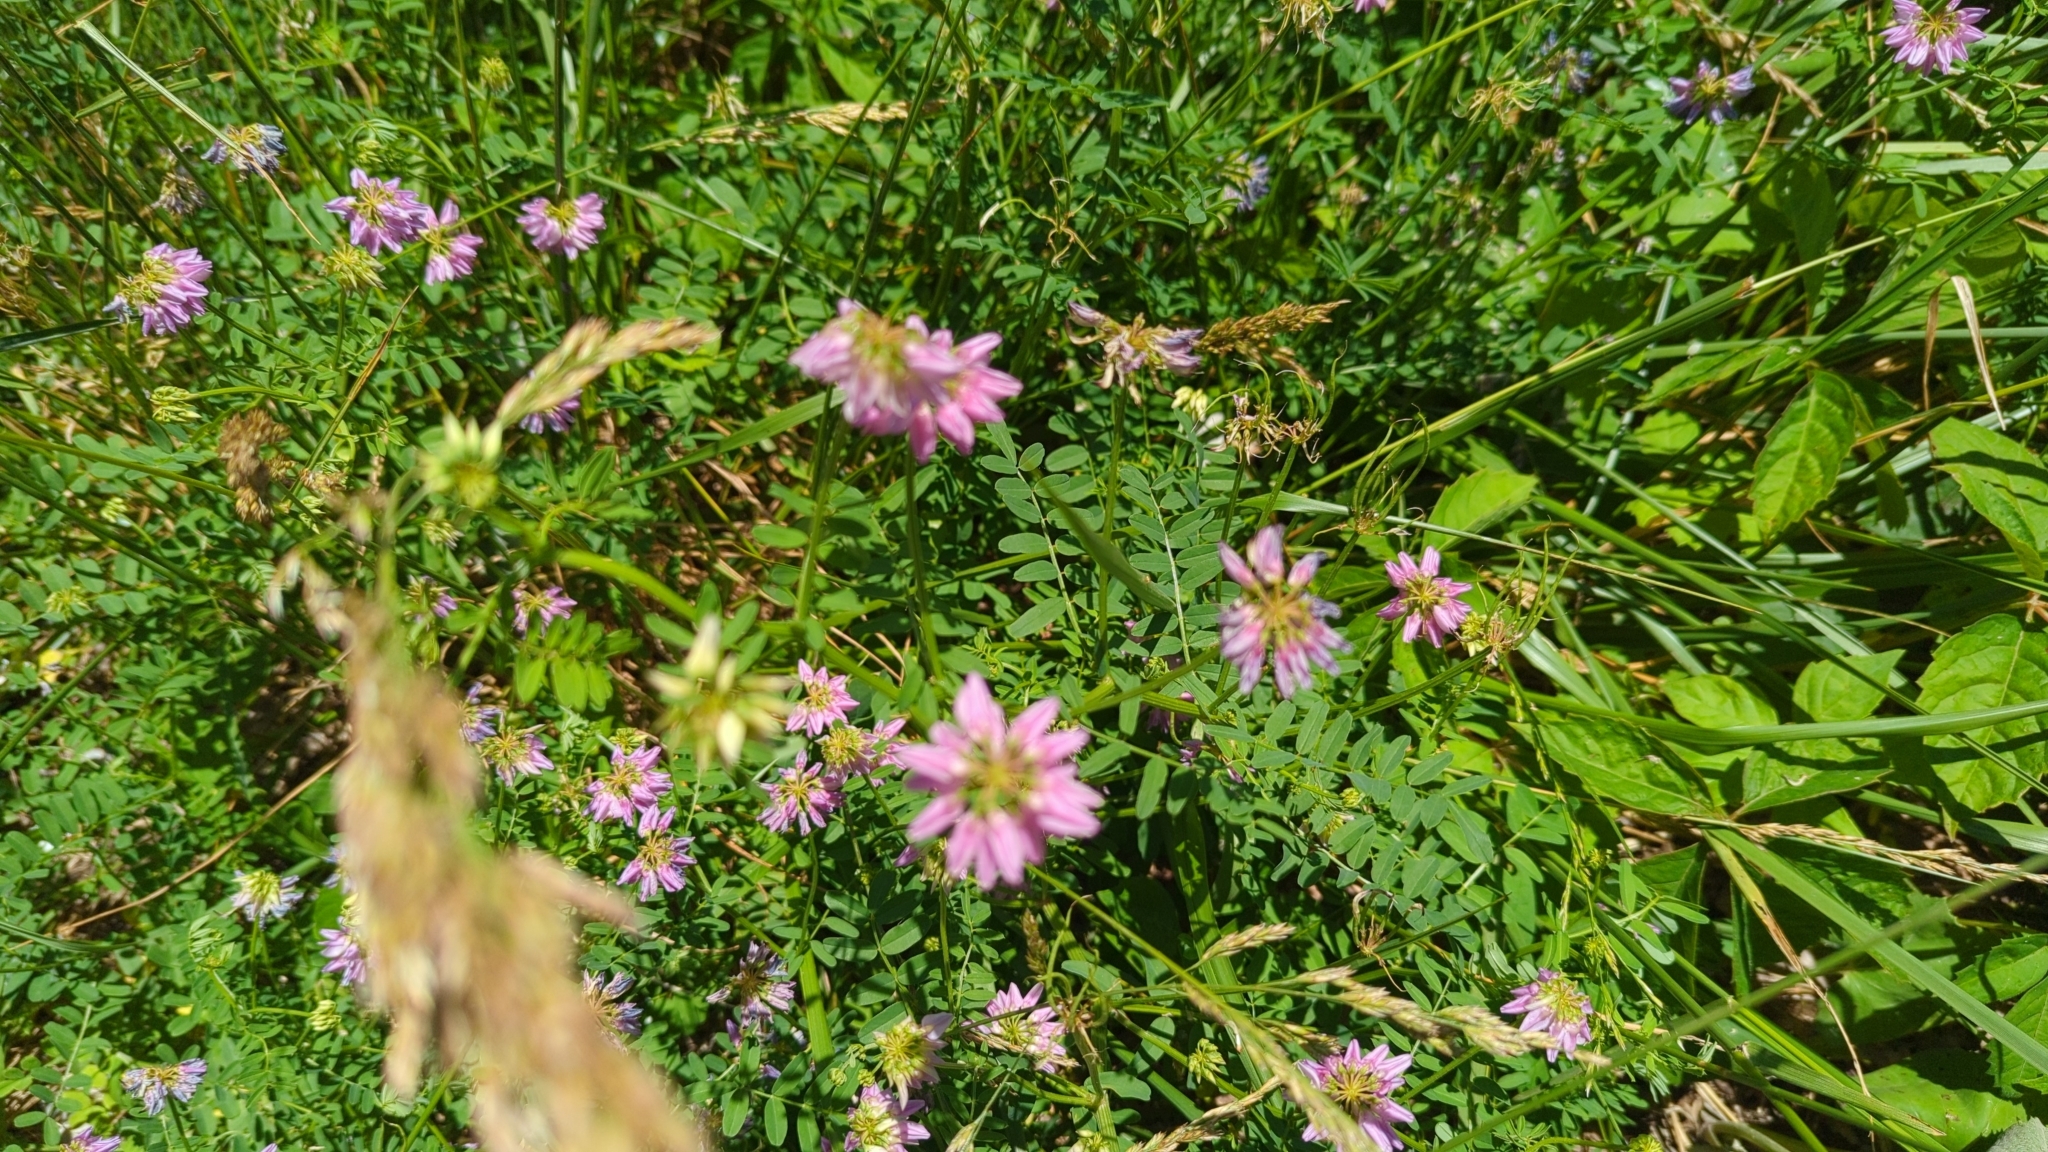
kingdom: Plantae
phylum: Tracheophyta
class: Magnoliopsida
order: Fabales
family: Fabaceae
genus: Coronilla
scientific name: Coronilla varia
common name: Crownvetch
